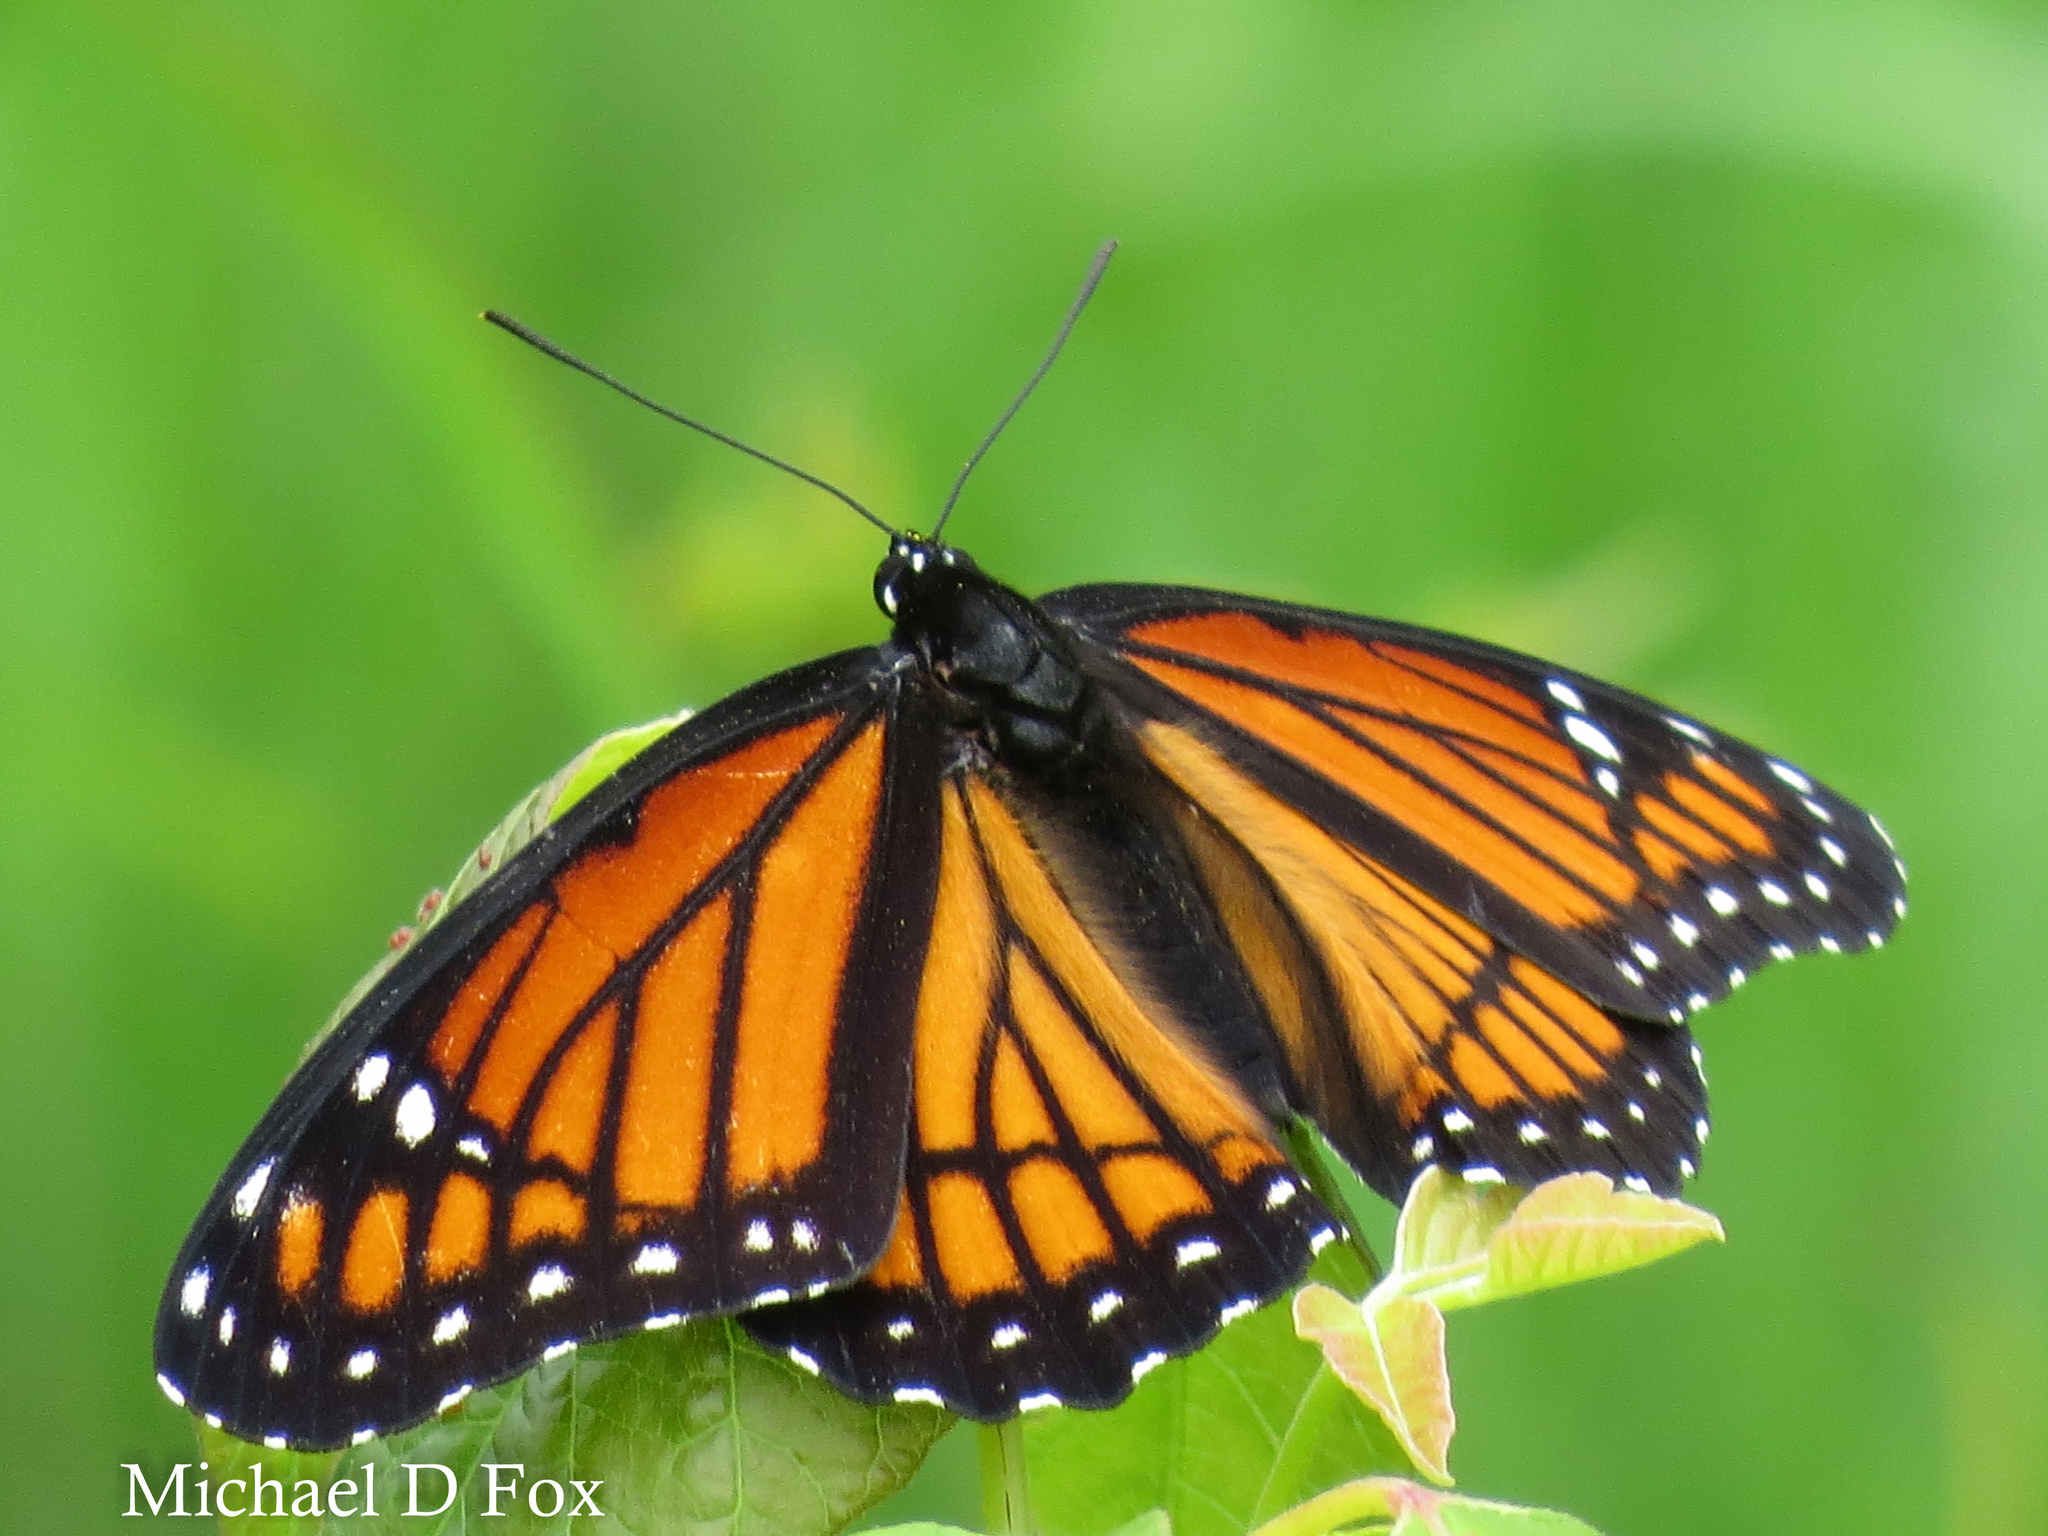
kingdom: Animalia
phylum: Arthropoda
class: Insecta
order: Lepidoptera
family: Nymphalidae
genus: Limenitis
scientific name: Limenitis archippus
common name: Viceroy
